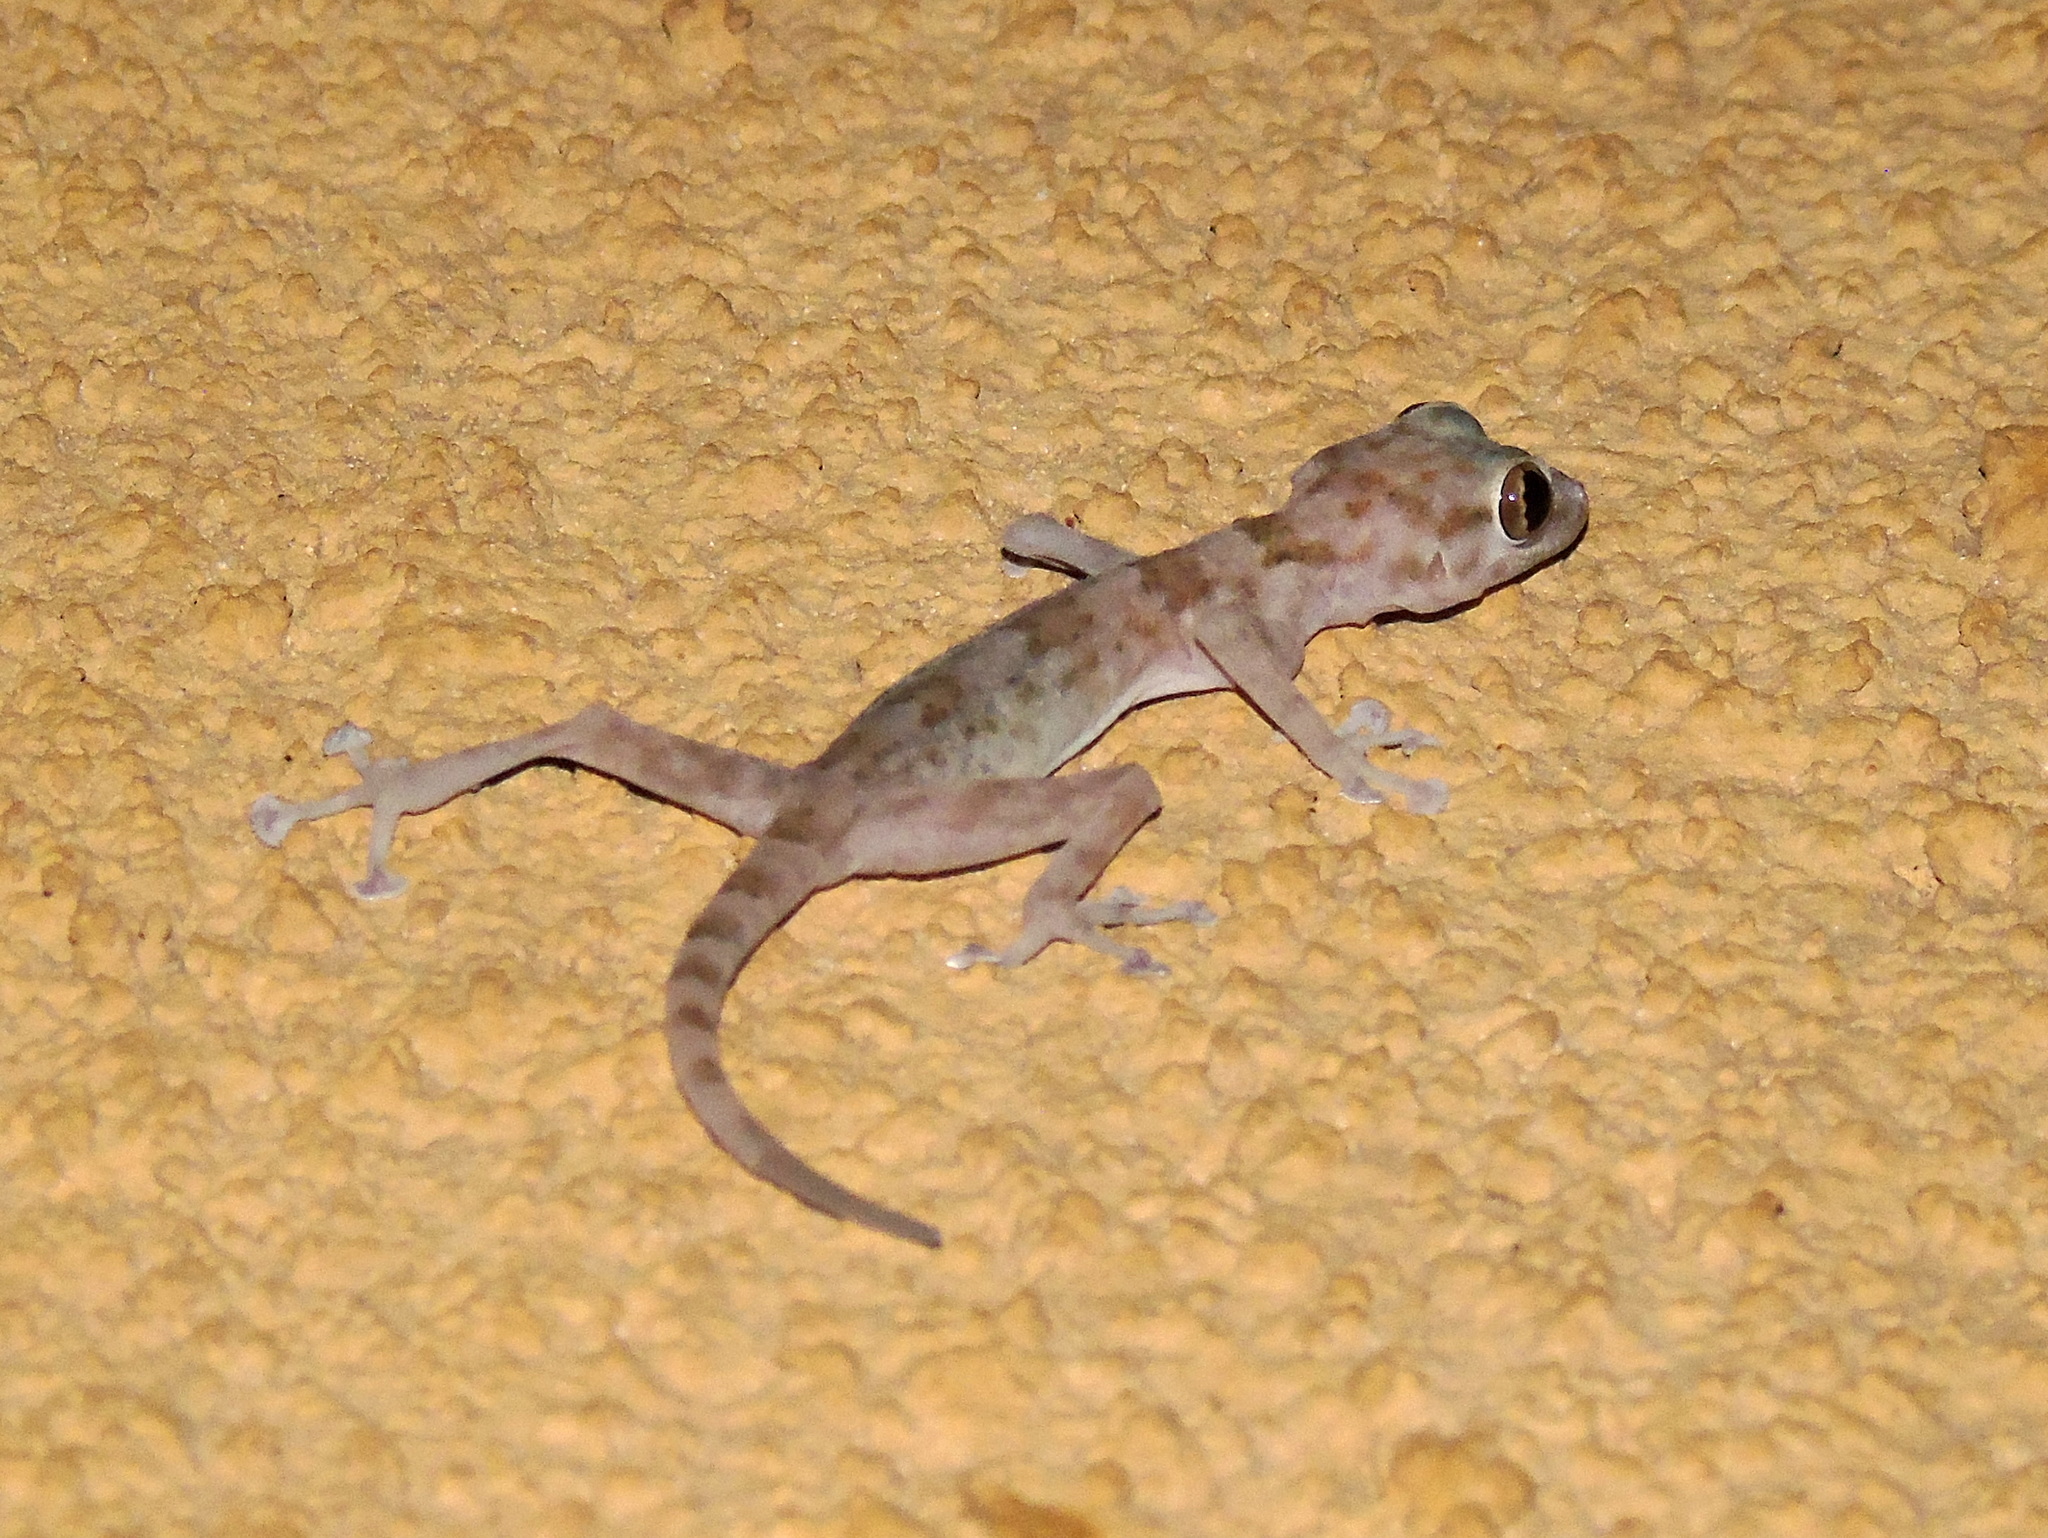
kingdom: Animalia
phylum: Chordata
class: Squamata
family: Phyllodactylidae
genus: Ptyodactylus
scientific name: Ptyodactylus hasselquistii
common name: Hasselquist’s fan-footed gecko
